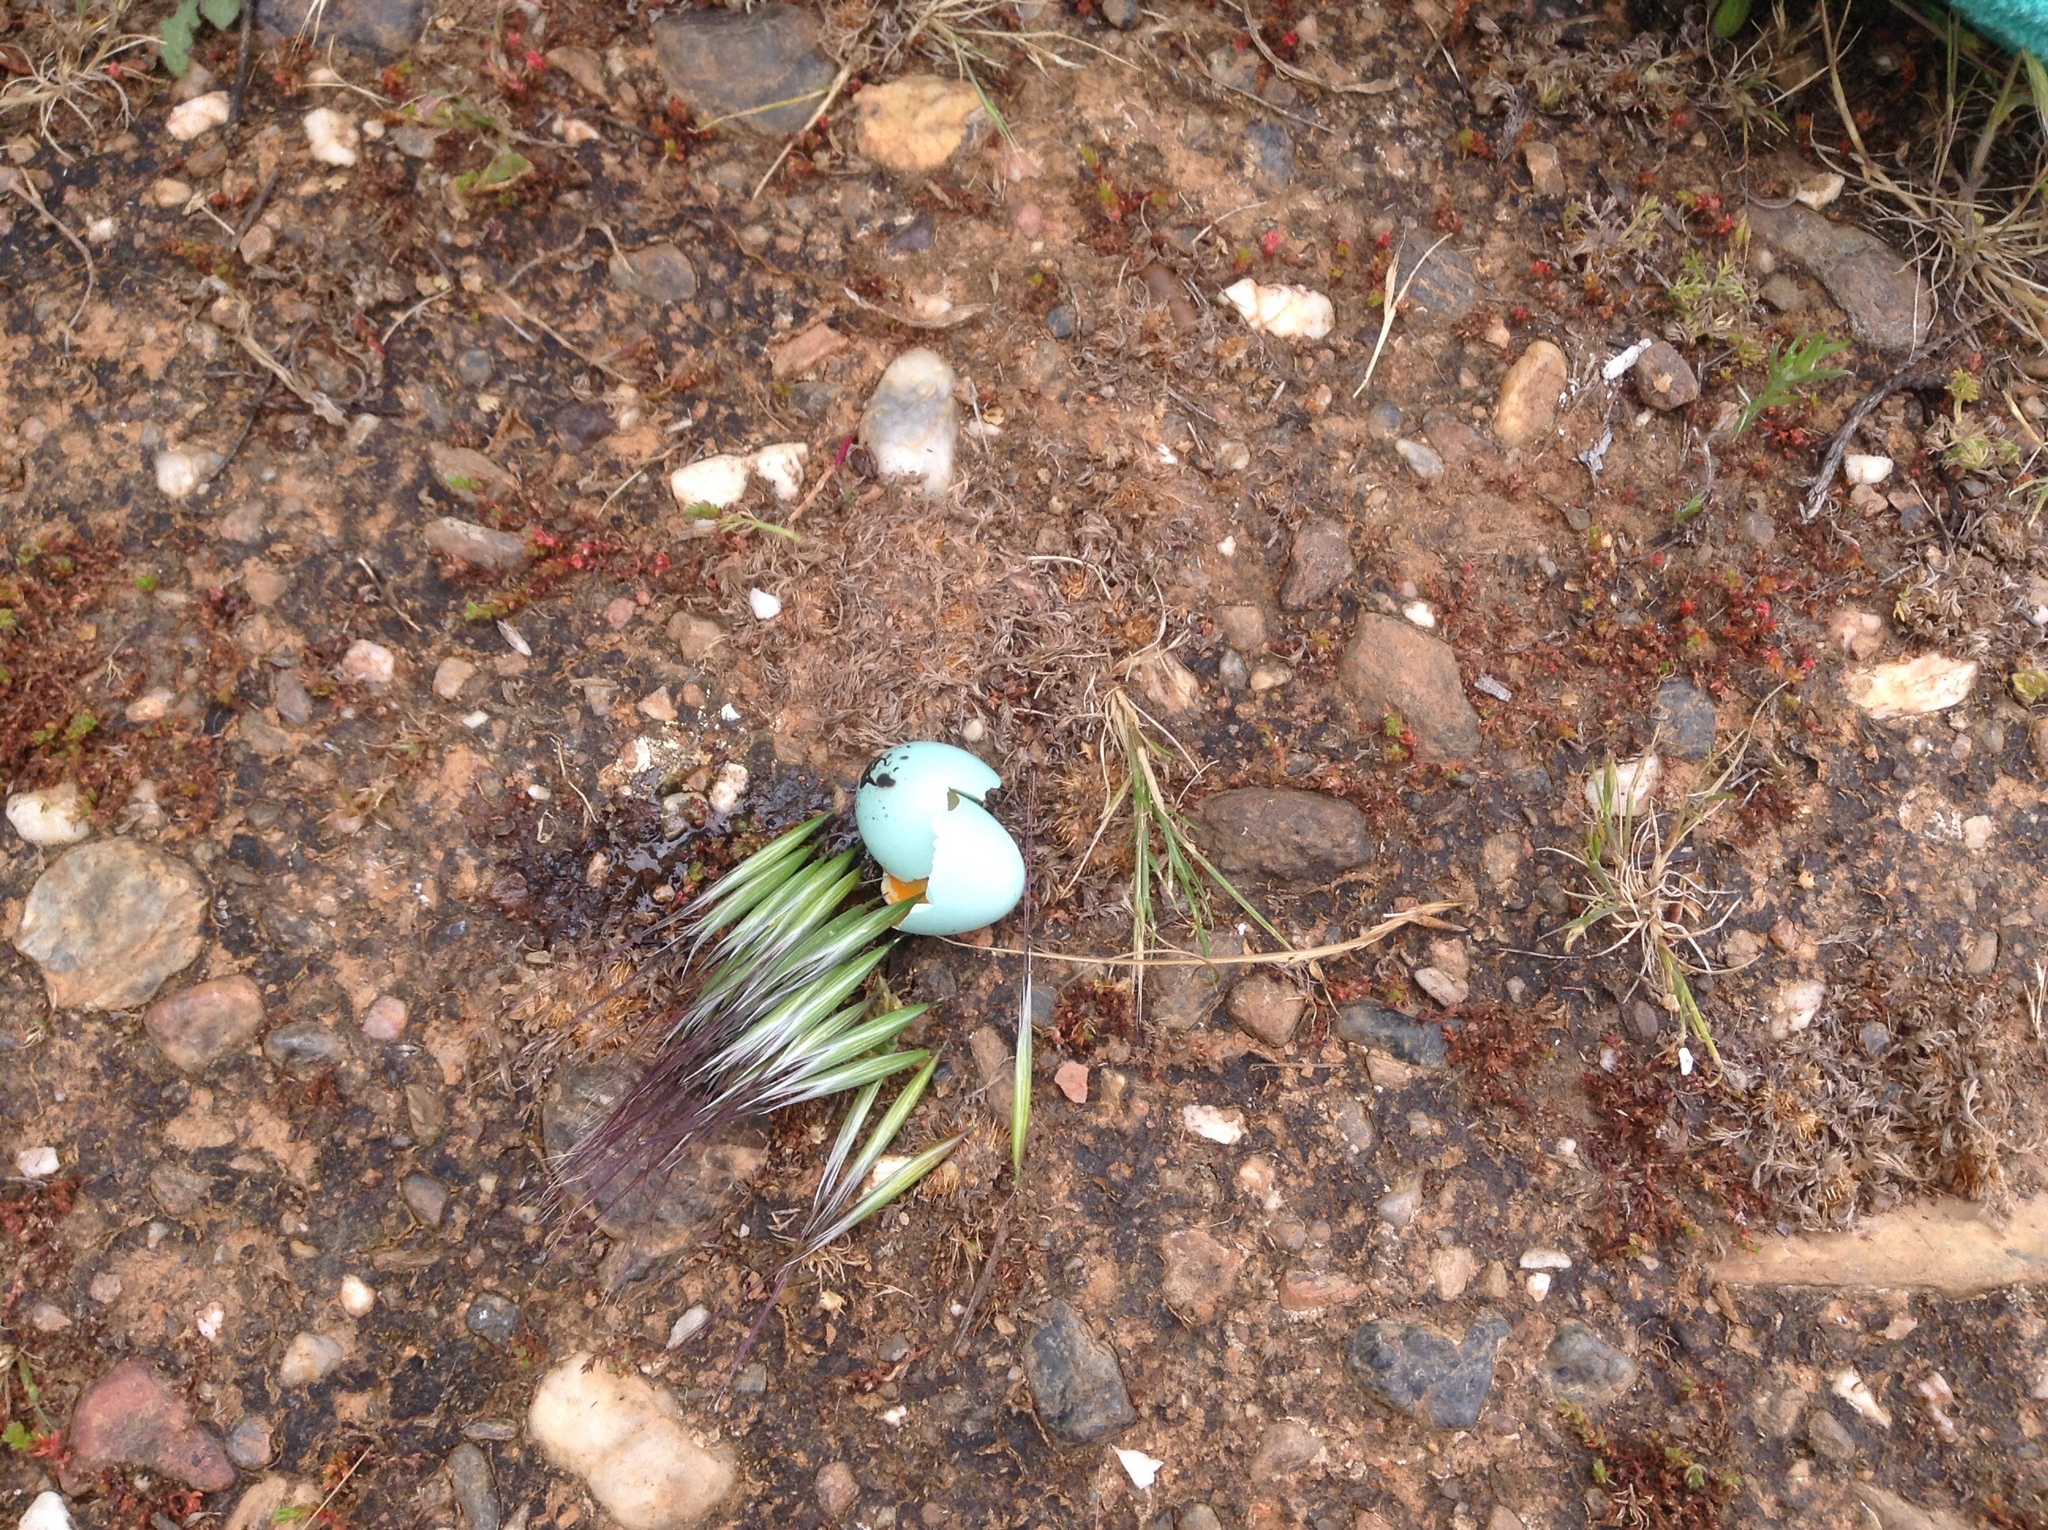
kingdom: Animalia
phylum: Chordata
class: Aves
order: Passeriformes
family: Turdidae
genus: Turdus
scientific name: Turdus migratorius
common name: American robin
